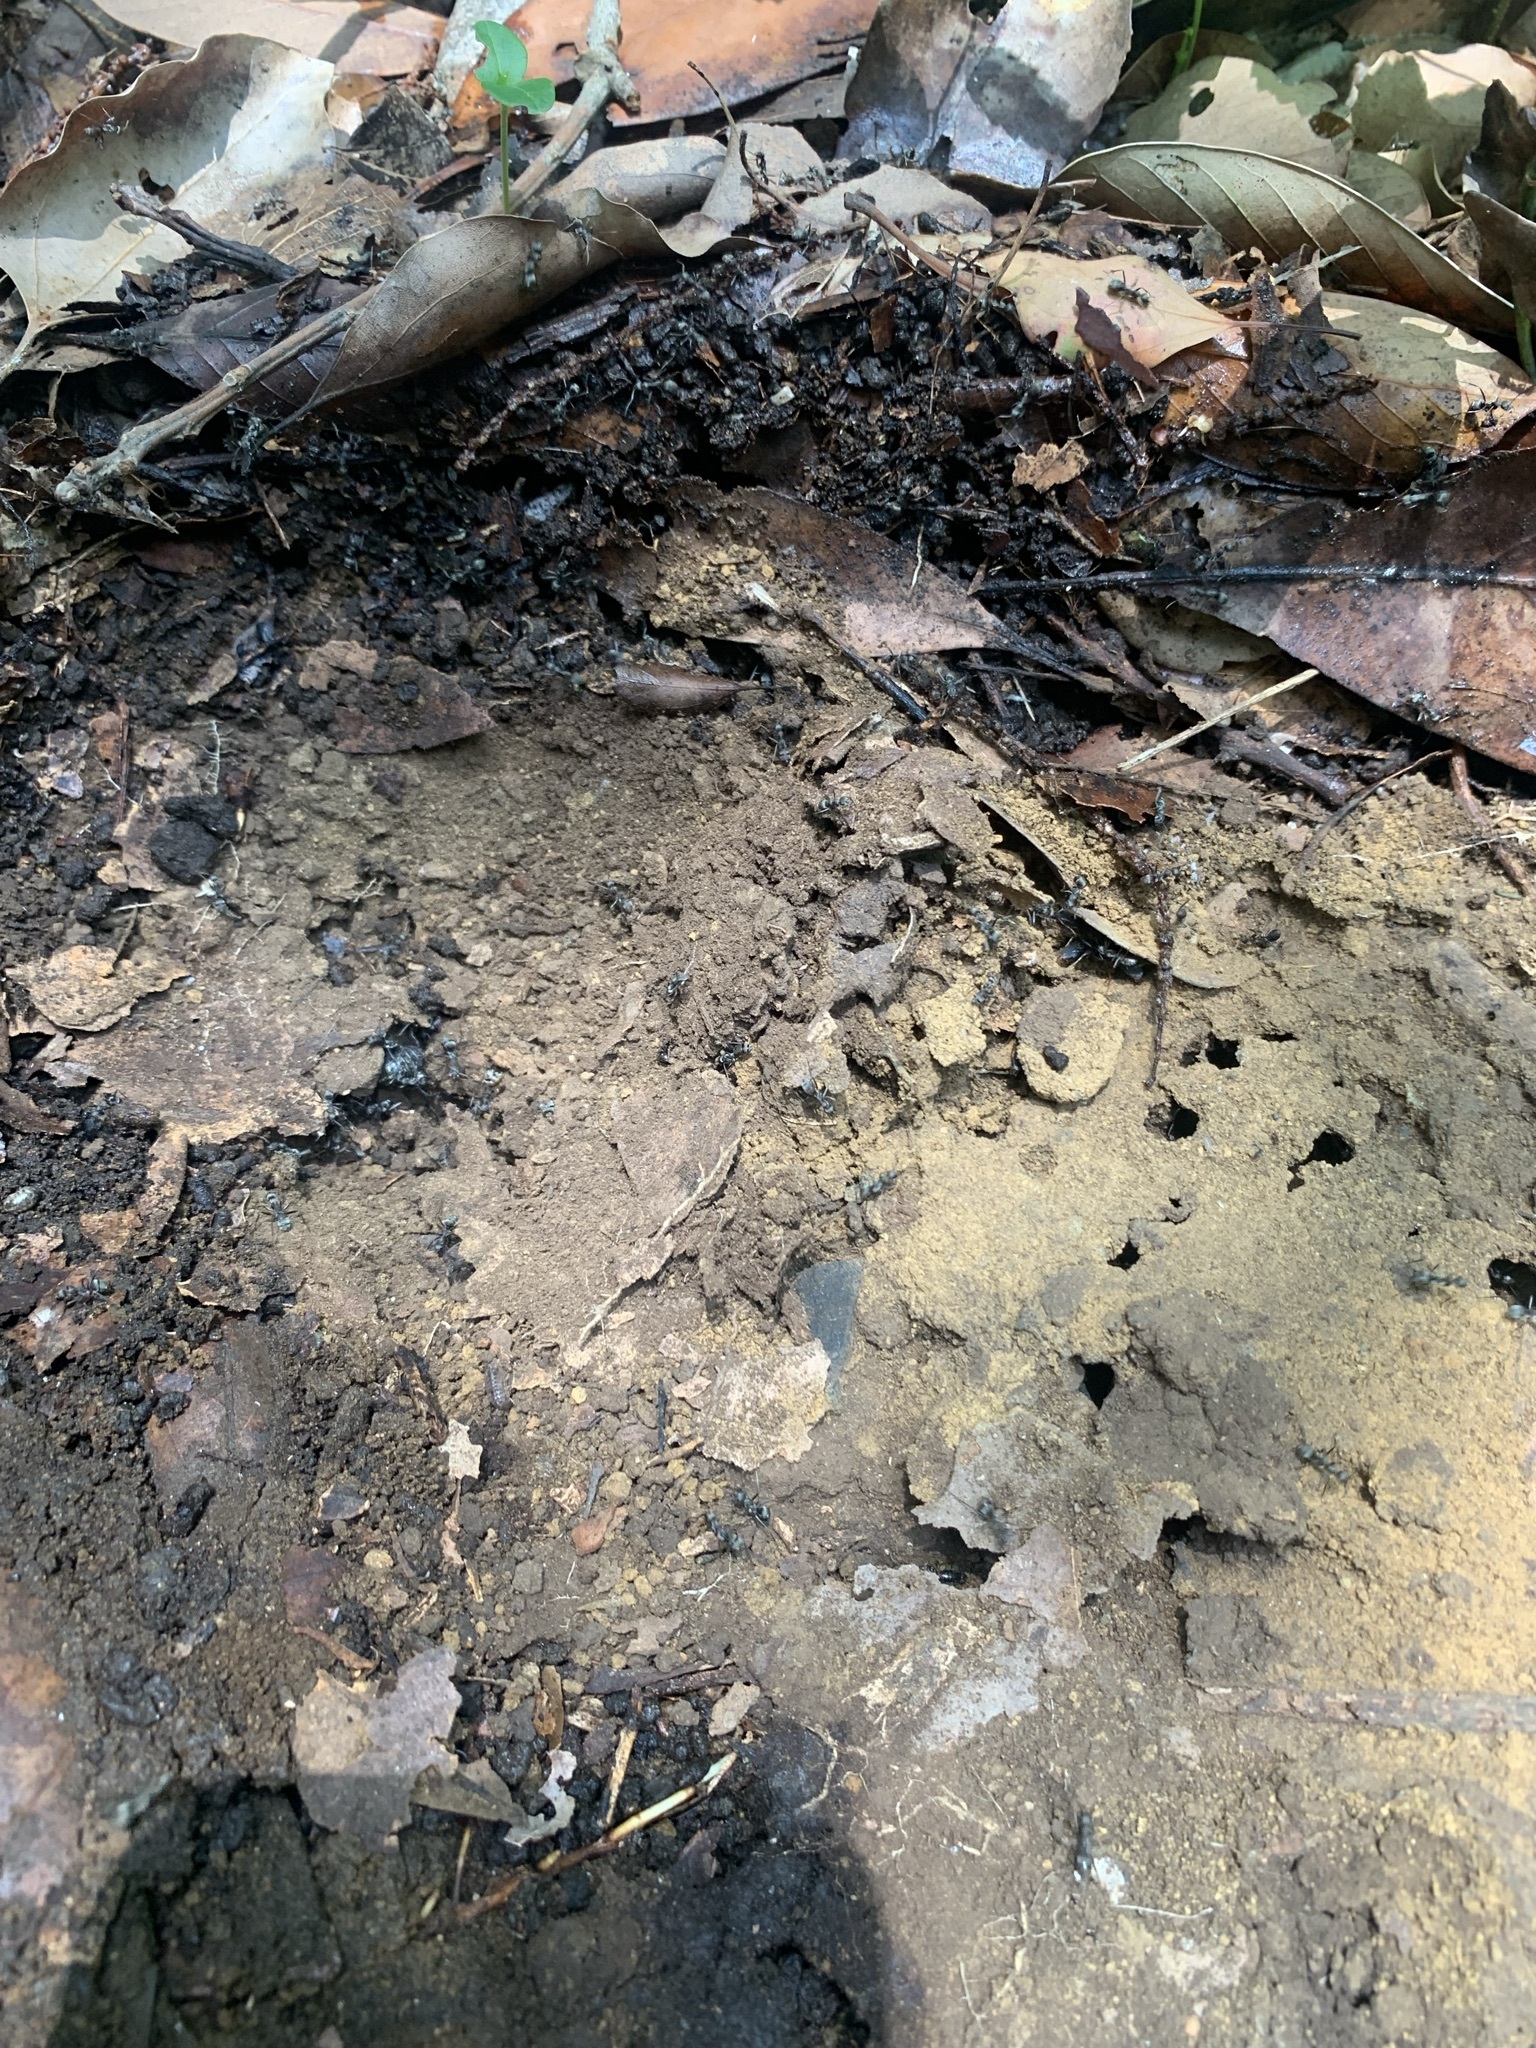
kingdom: Animalia
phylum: Arthropoda
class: Insecta
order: Hymenoptera
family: Formicidae
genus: Formica
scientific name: Formica japonica
